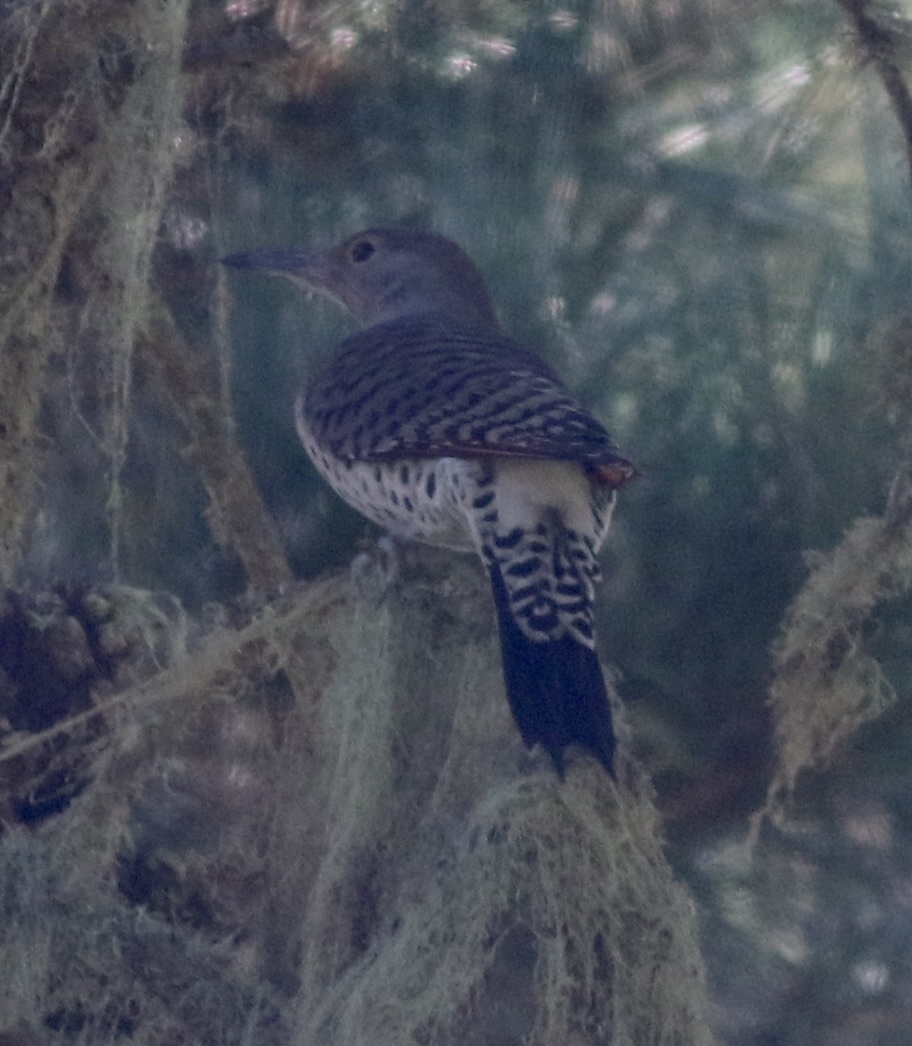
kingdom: Animalia
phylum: Chordata
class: Aves
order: Piciformes
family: Picidae
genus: Colaptes
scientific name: Colaptes auratus
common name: Northern flicker
